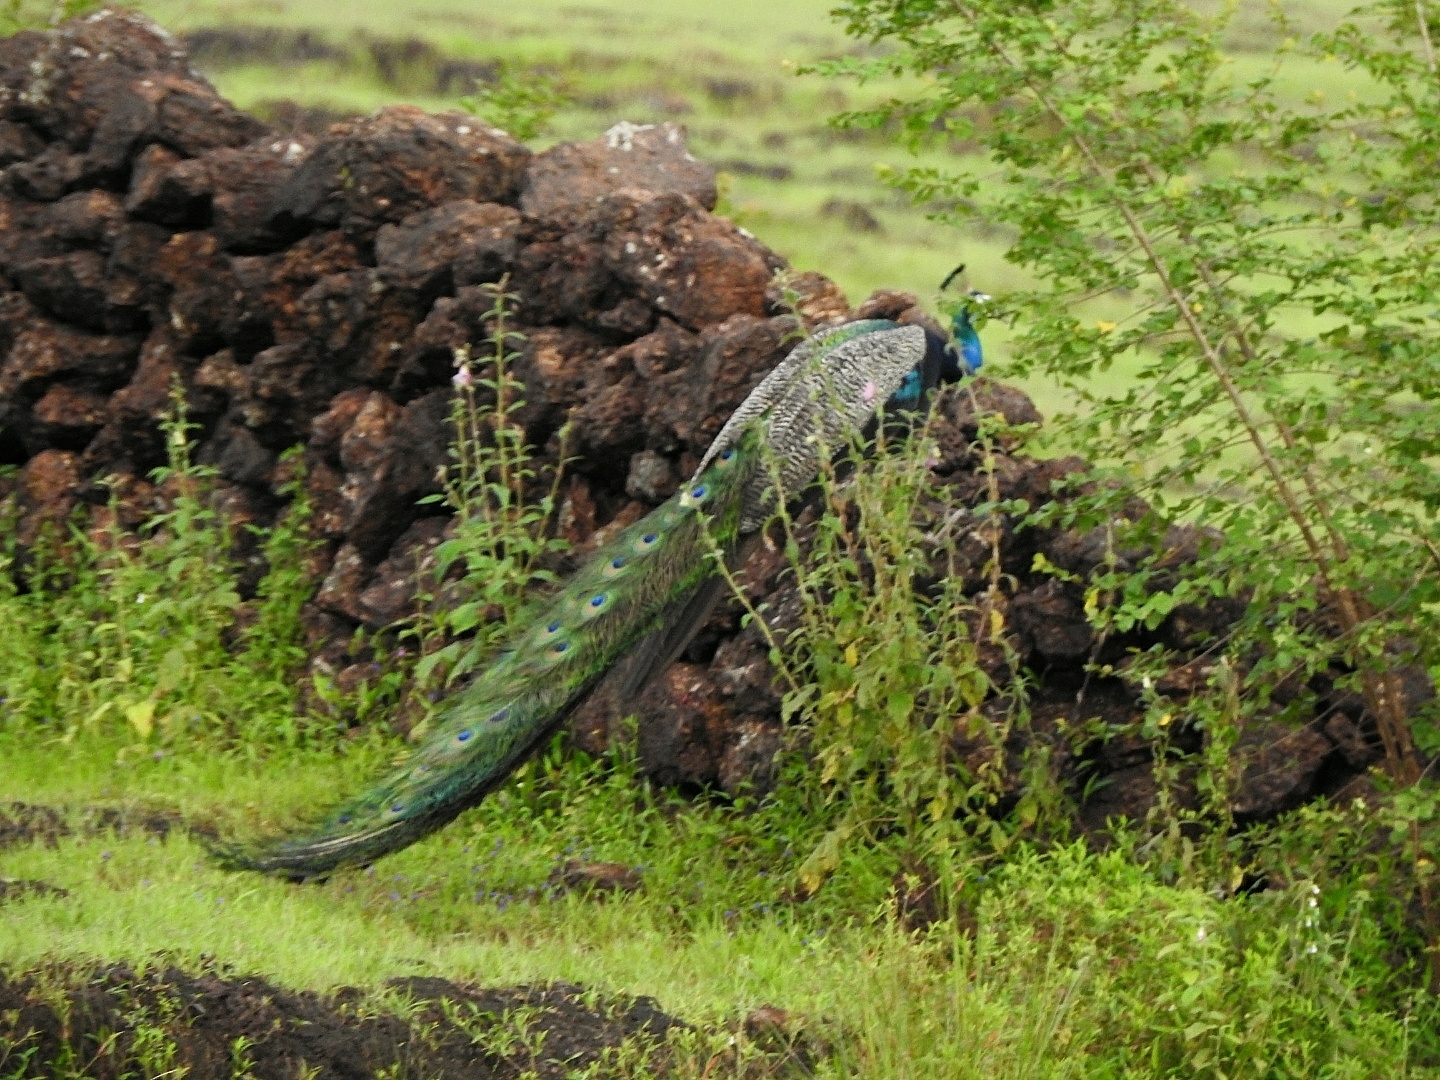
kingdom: Animalia
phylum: Chordata
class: Aves
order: Galliformes
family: Phasianidae
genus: Pavo
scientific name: Pavo cristatus
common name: Indian peafowl
